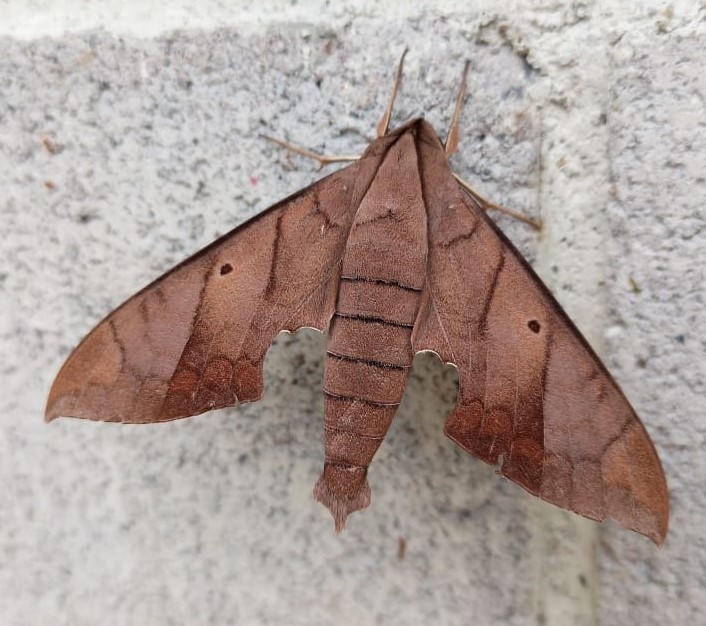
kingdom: Animalia
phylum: Arthropoda
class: Insecta
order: Lepidoptera
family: Sphingidae
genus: Pachylia
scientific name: Pachylia darceta
